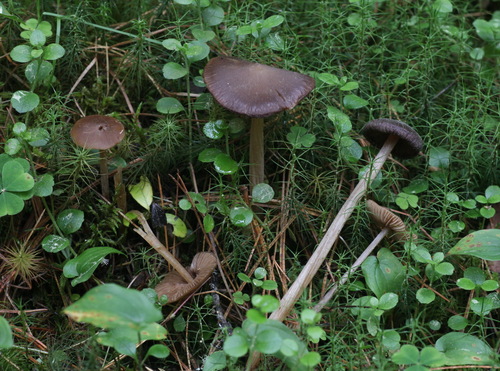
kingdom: Fungi
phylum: Basidiomycota
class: Agaricomycetes
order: Agaricales
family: Entolomataceae
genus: Entoloma
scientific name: Entoloma lanuginosipes
